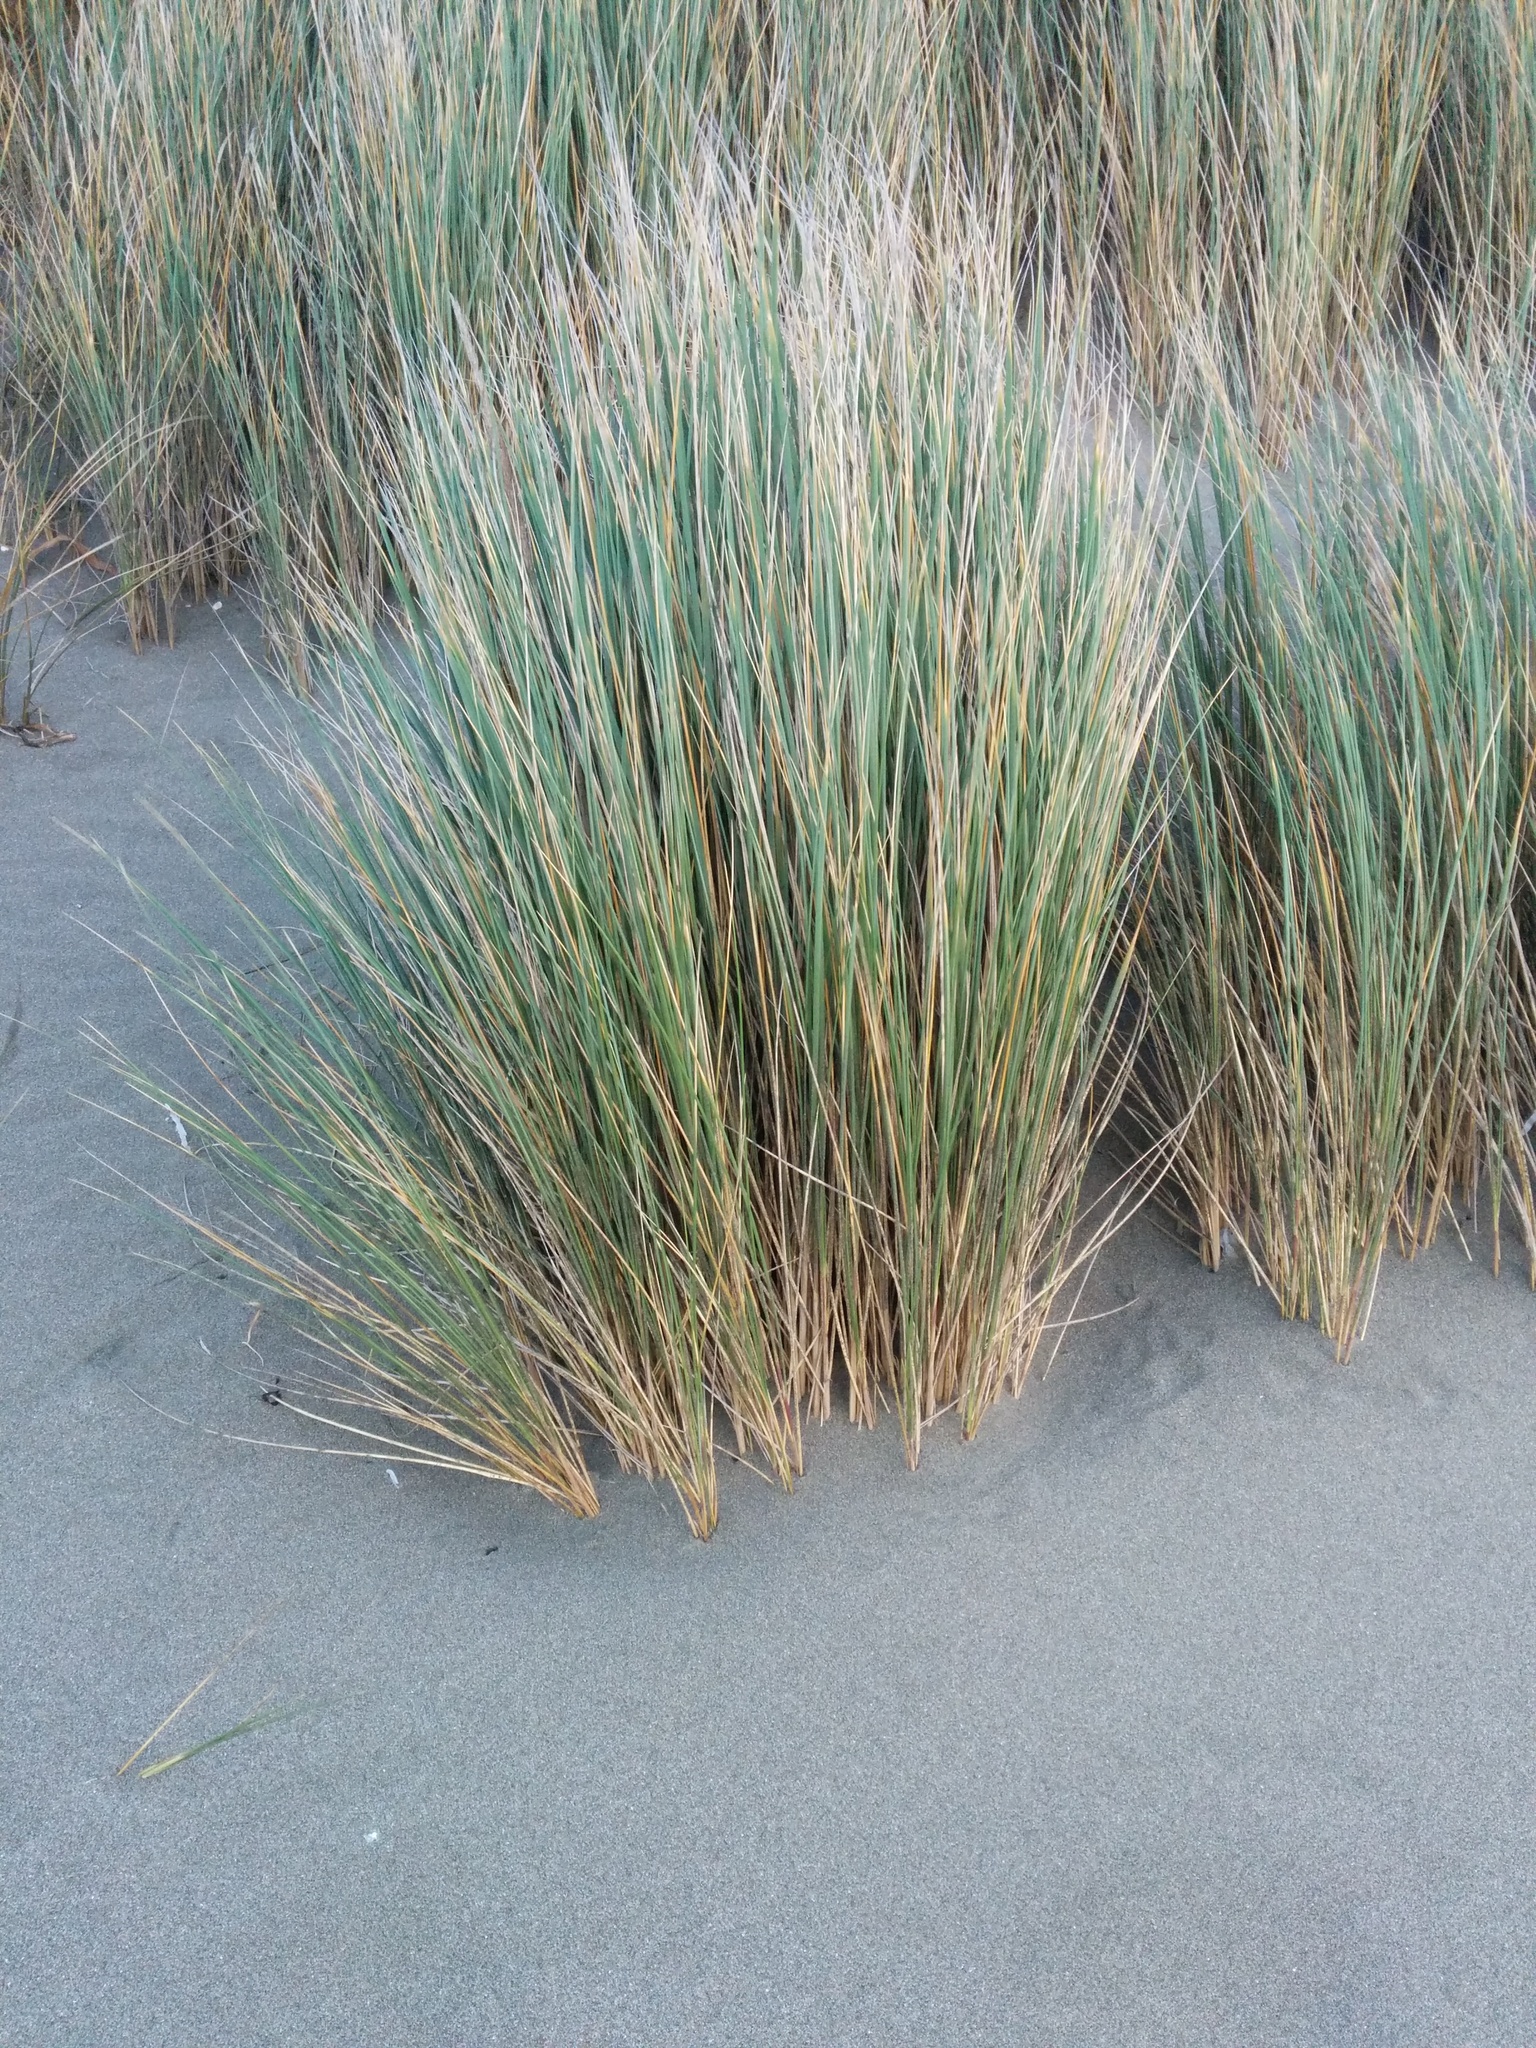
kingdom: Plantae
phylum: Tracheophyta
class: Liliopsida
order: Poales
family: Poaceae
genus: Calamagrostis
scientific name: Calamagrostis arenaria
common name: European beachgrass
